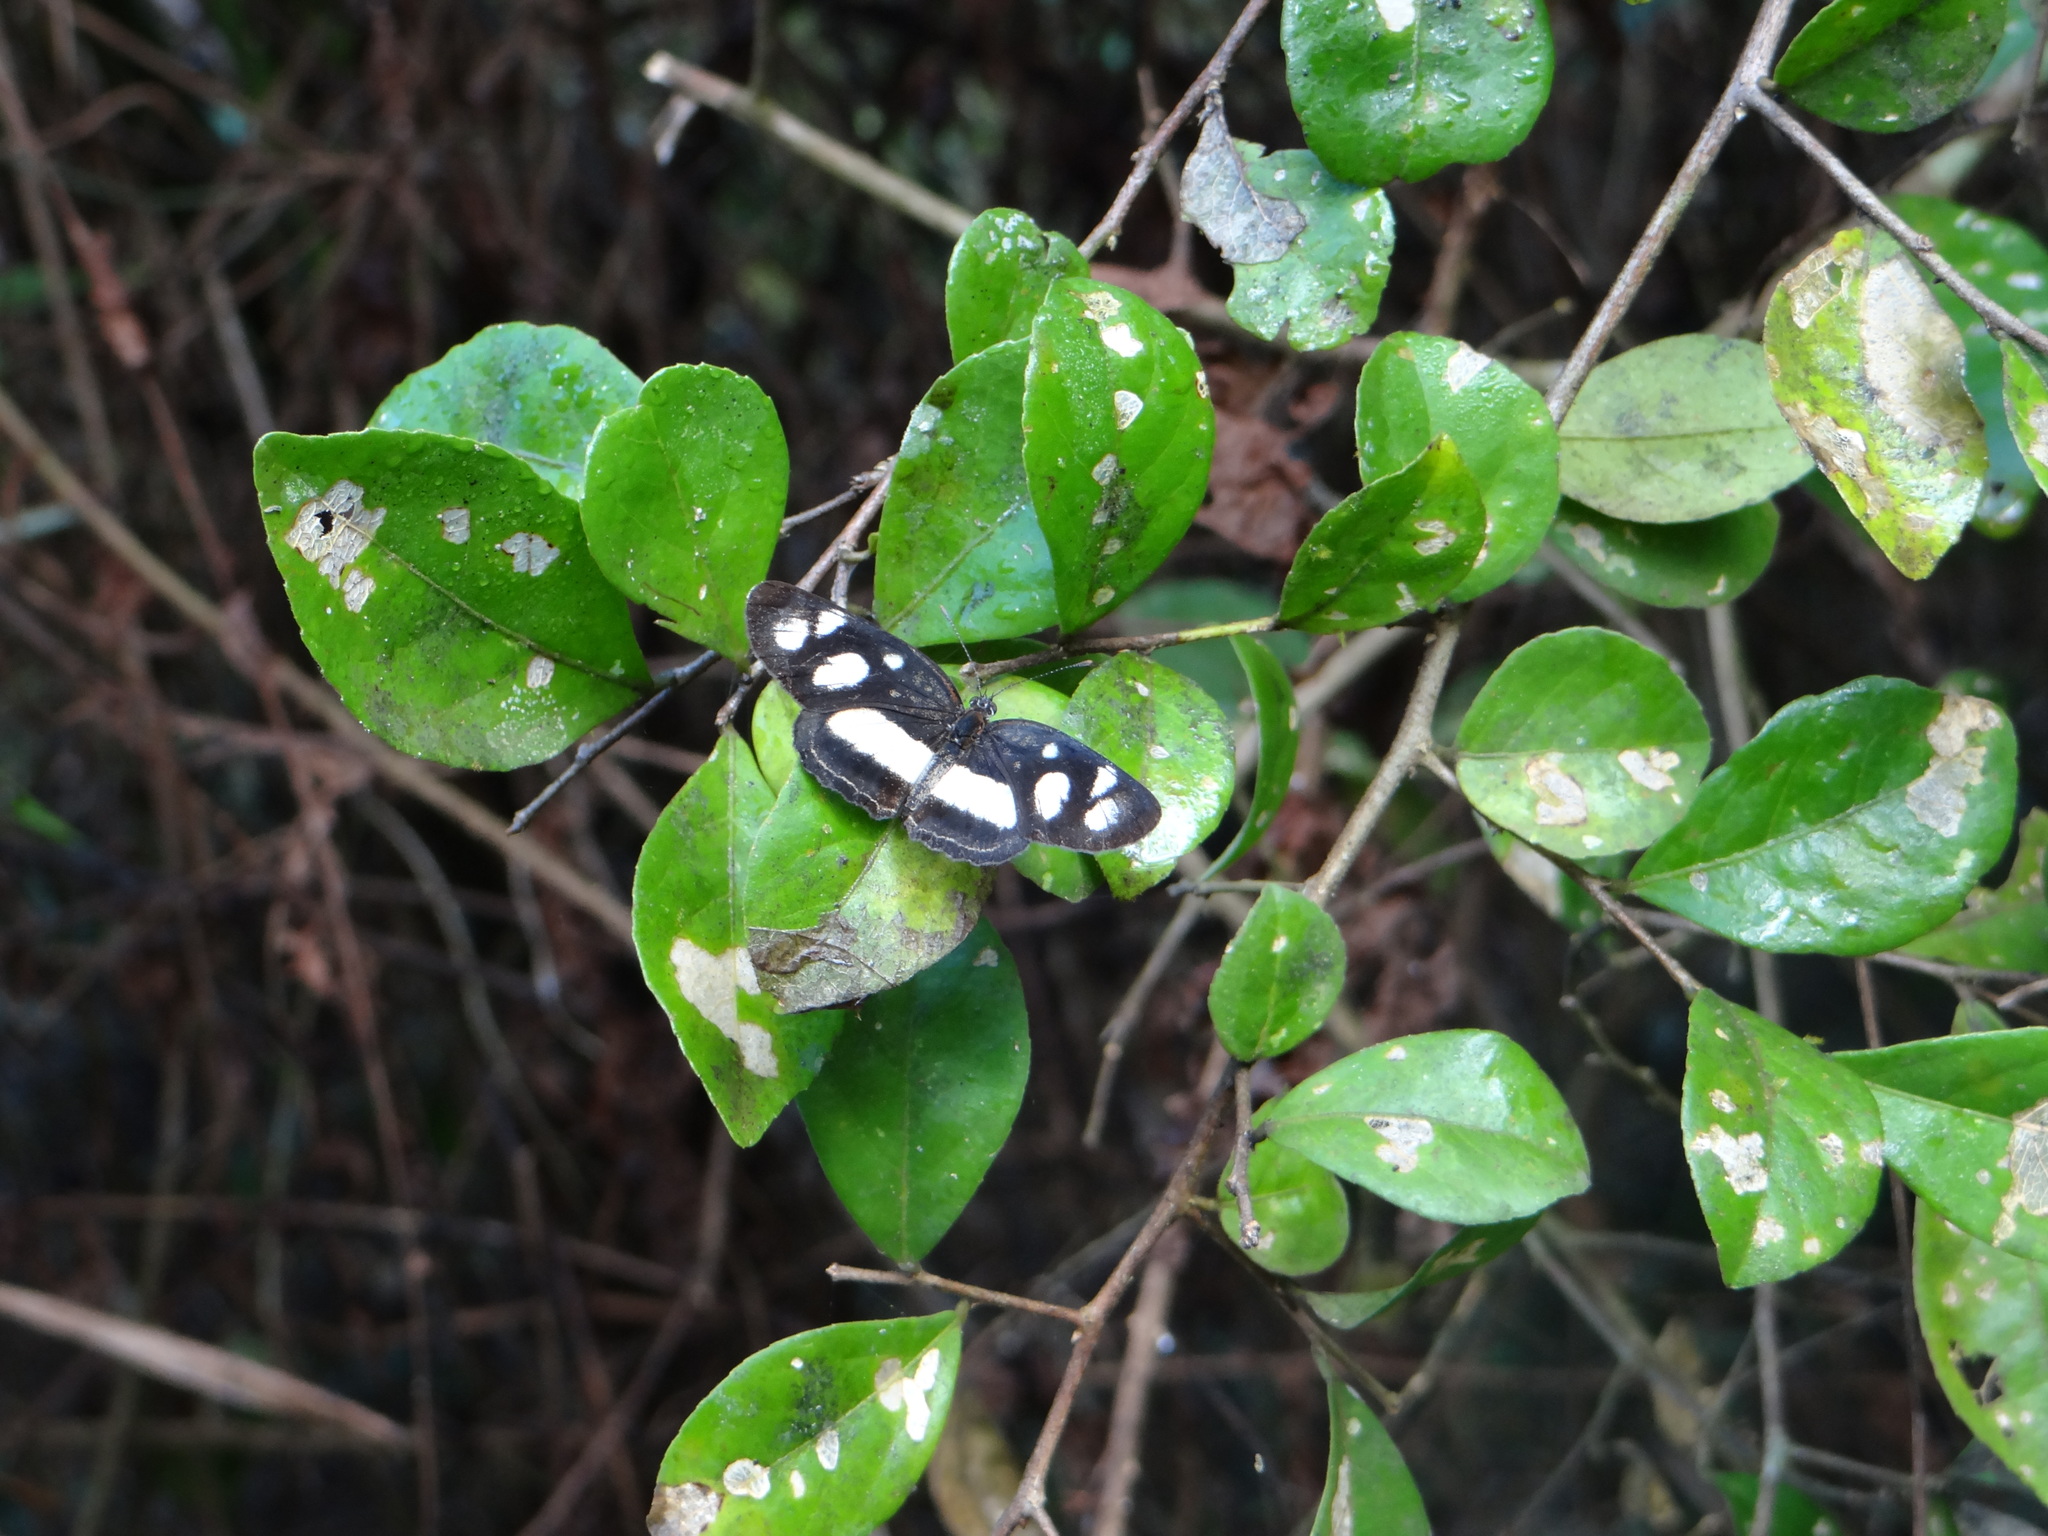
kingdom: Animalia
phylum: Arthropoda
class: Insecta
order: Lepidoptera
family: Nymphalidae
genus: Eresia
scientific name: Eresia clio
